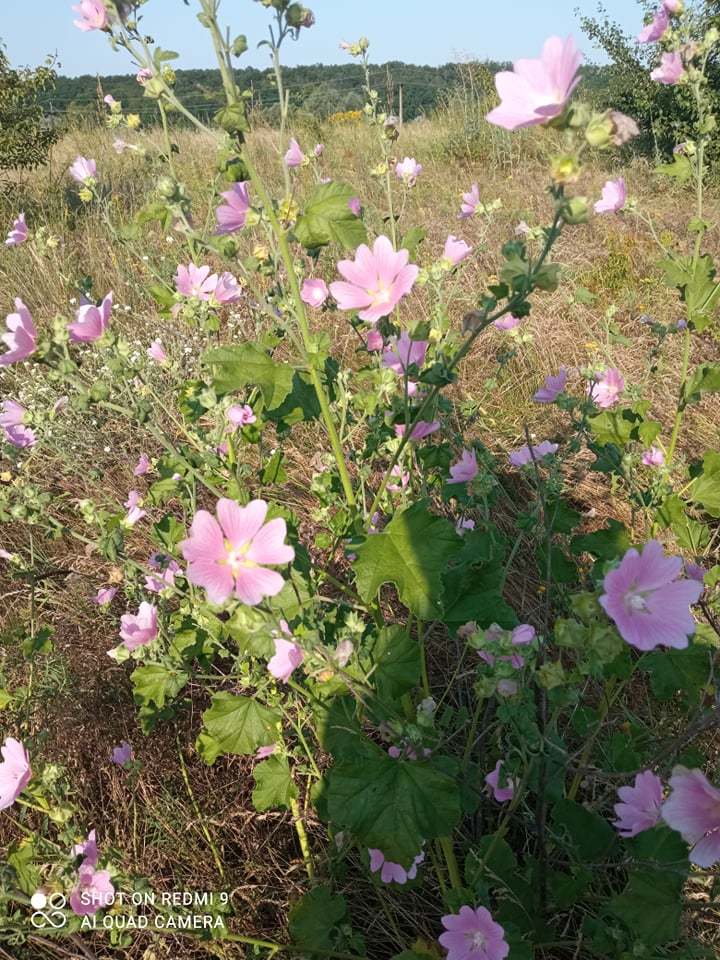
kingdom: Plantae
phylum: Tracheophyta
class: Magnoliopsida
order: Malvales
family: Malvaceae
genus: Malva
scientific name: Malva thuringiaca
